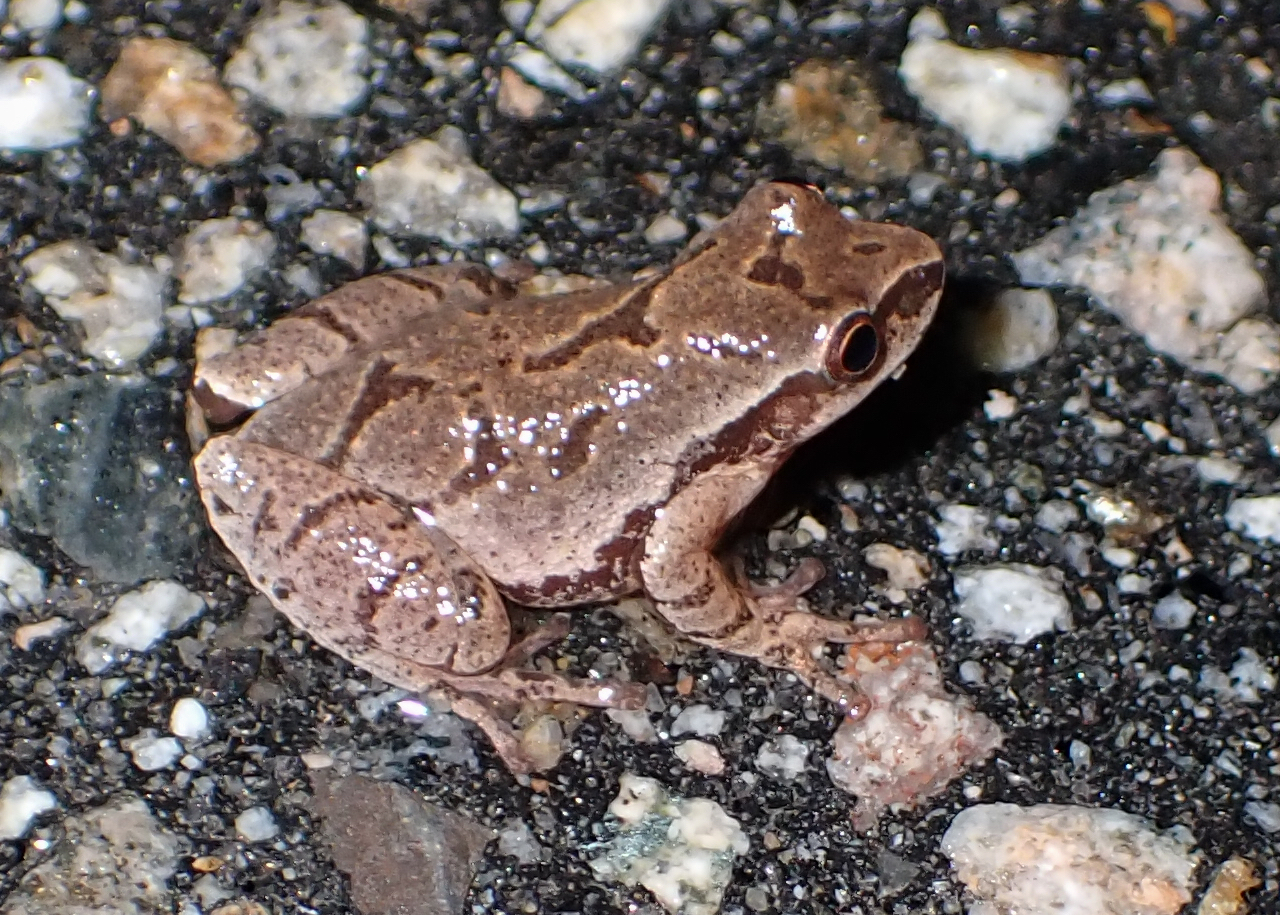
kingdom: Animalia
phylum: Chordata
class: Amphibia
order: Anura
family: Hylidae
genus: Pseudacris
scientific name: Pseudacris crucifer
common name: Spring peeper
